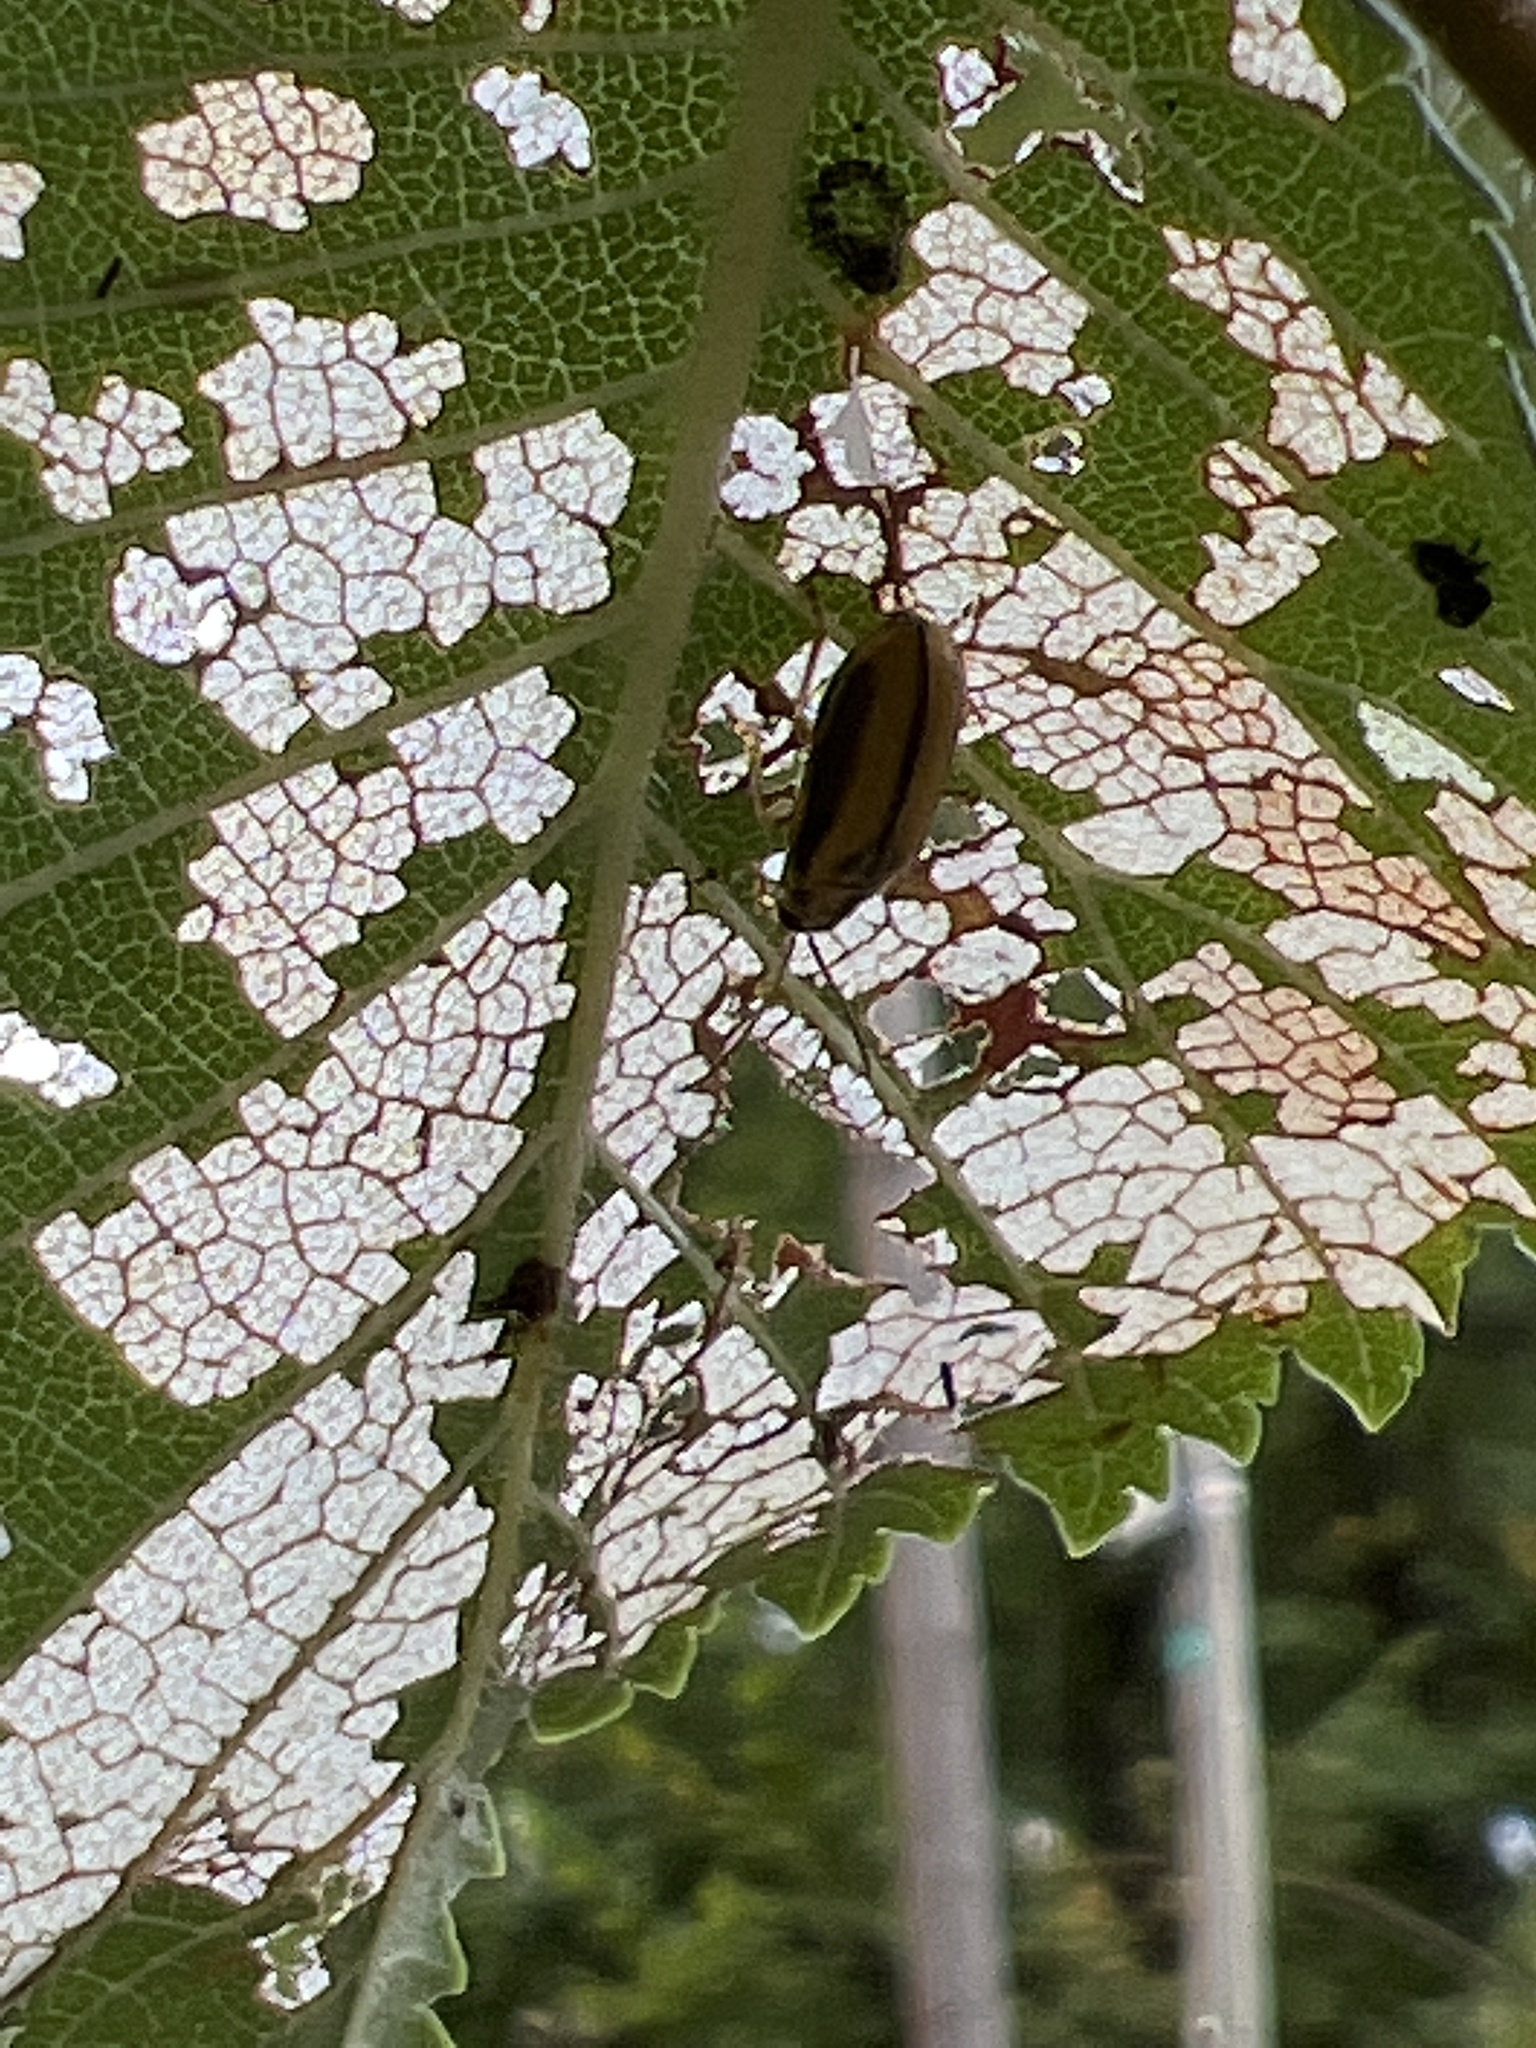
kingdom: Animalia
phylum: Arthropoda
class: Insecta
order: Coleoptera
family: Chrysomelidae
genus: Xanthogaleruca
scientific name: Xanthogaleruca luteola
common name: Elm leaf beetle
